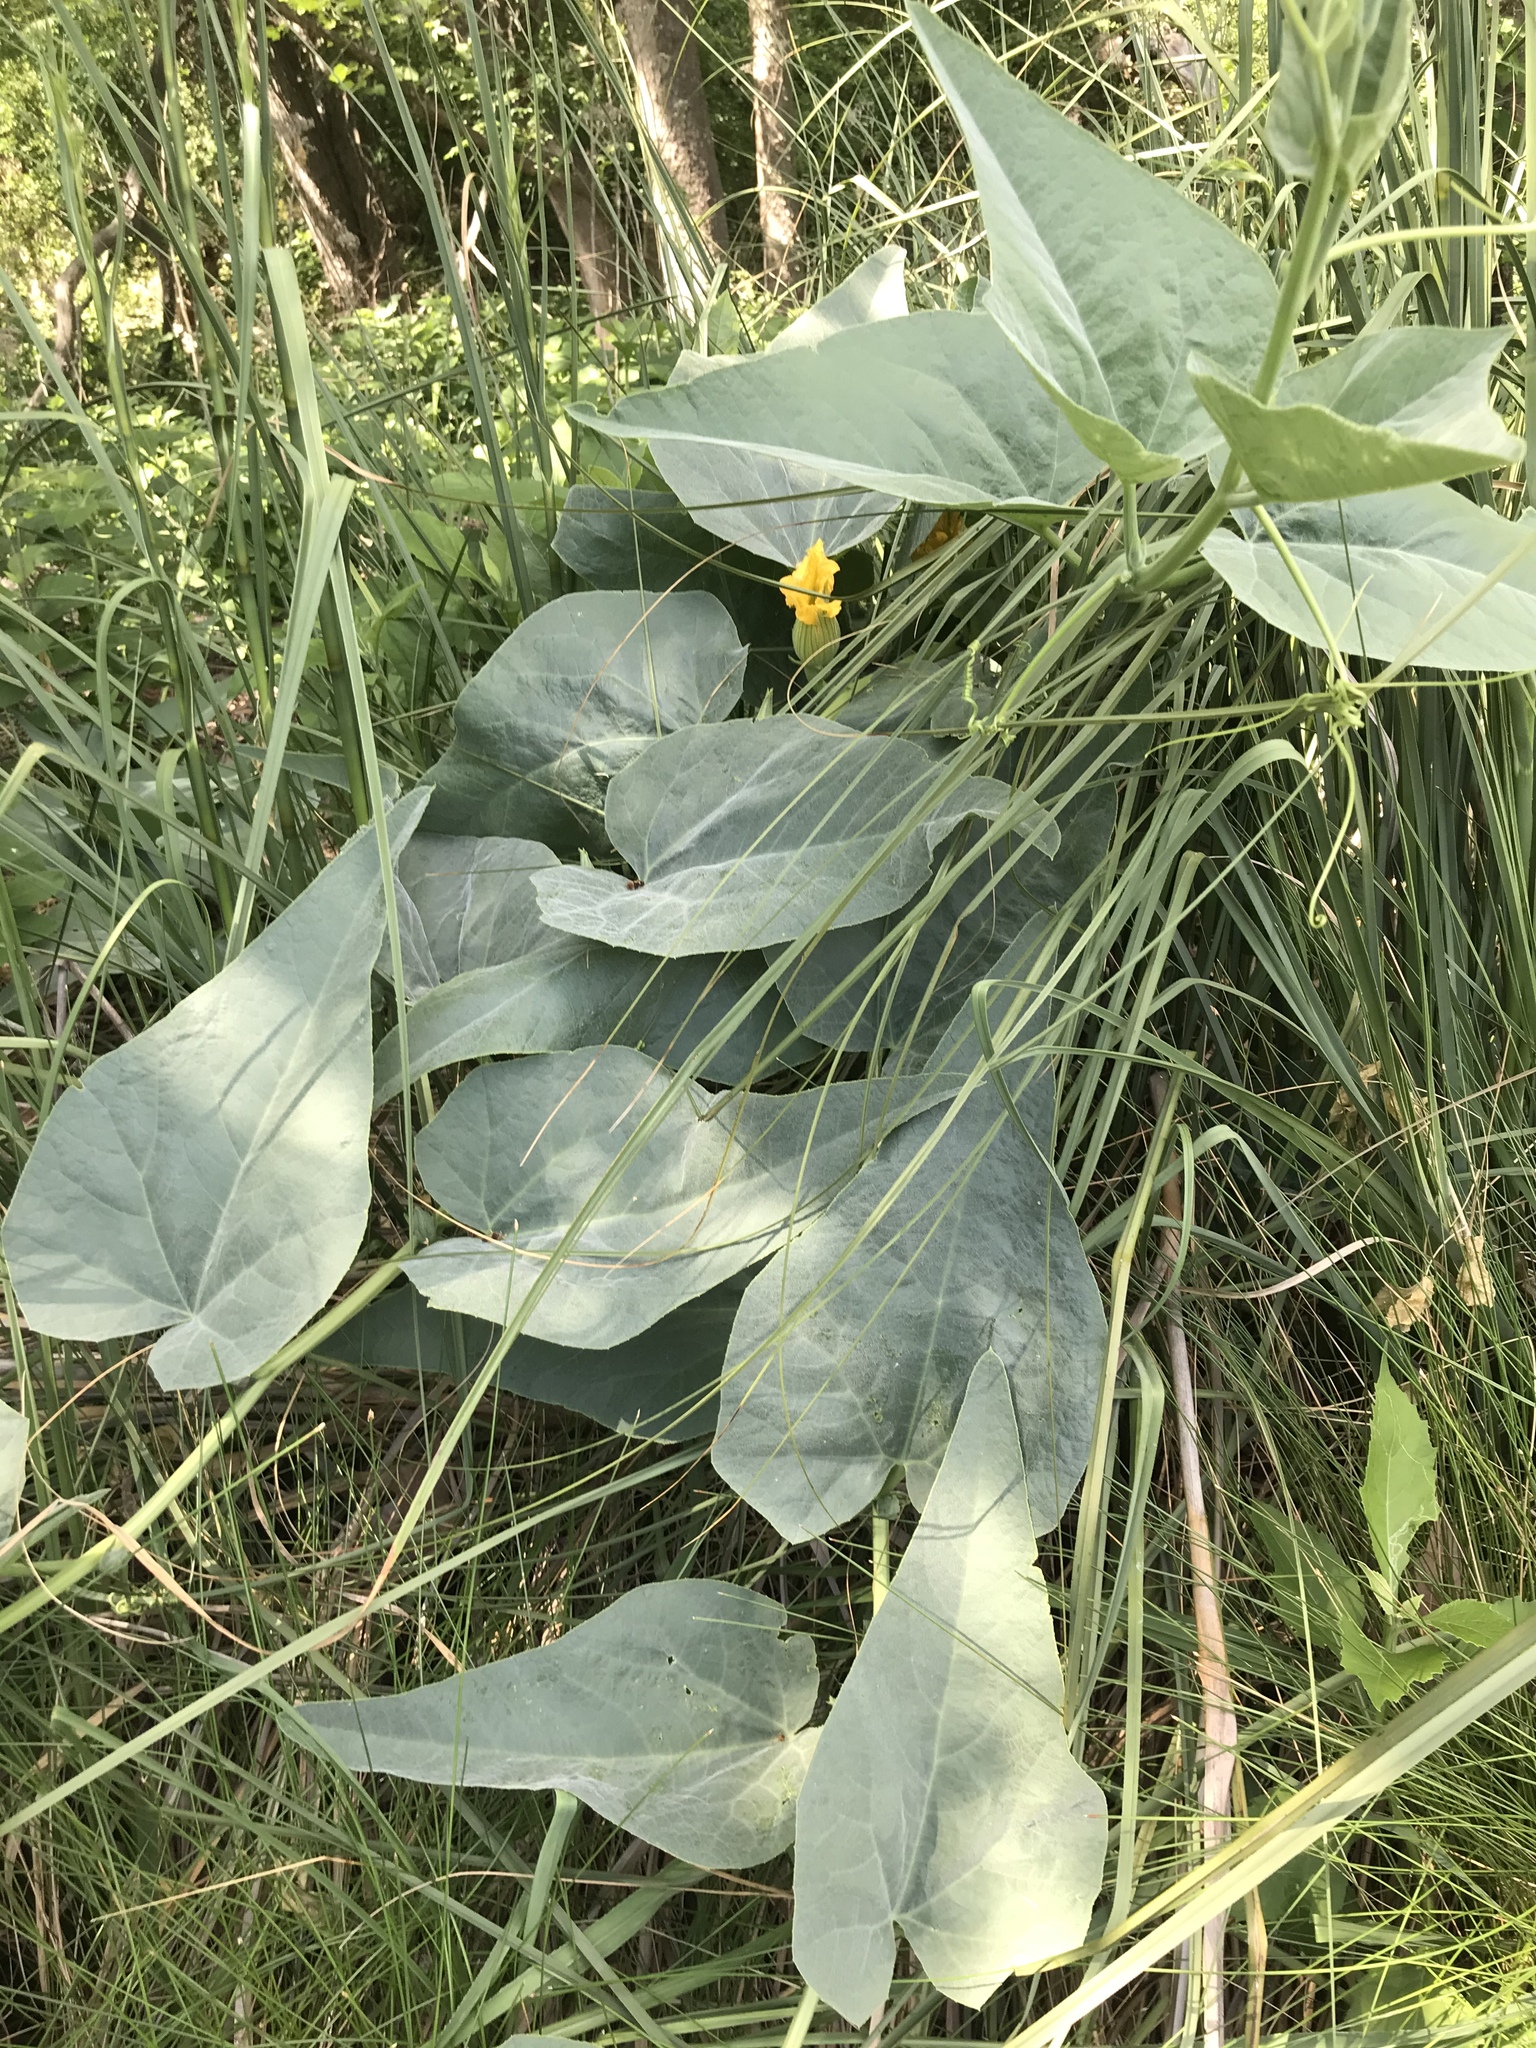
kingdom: Plantae
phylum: Tracheophyta
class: Magnoliopsida
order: Cucurbitales
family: Cucurbitaceae
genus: Cucurbita
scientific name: Cucurbita foetidissima
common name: Buffalo gourd
